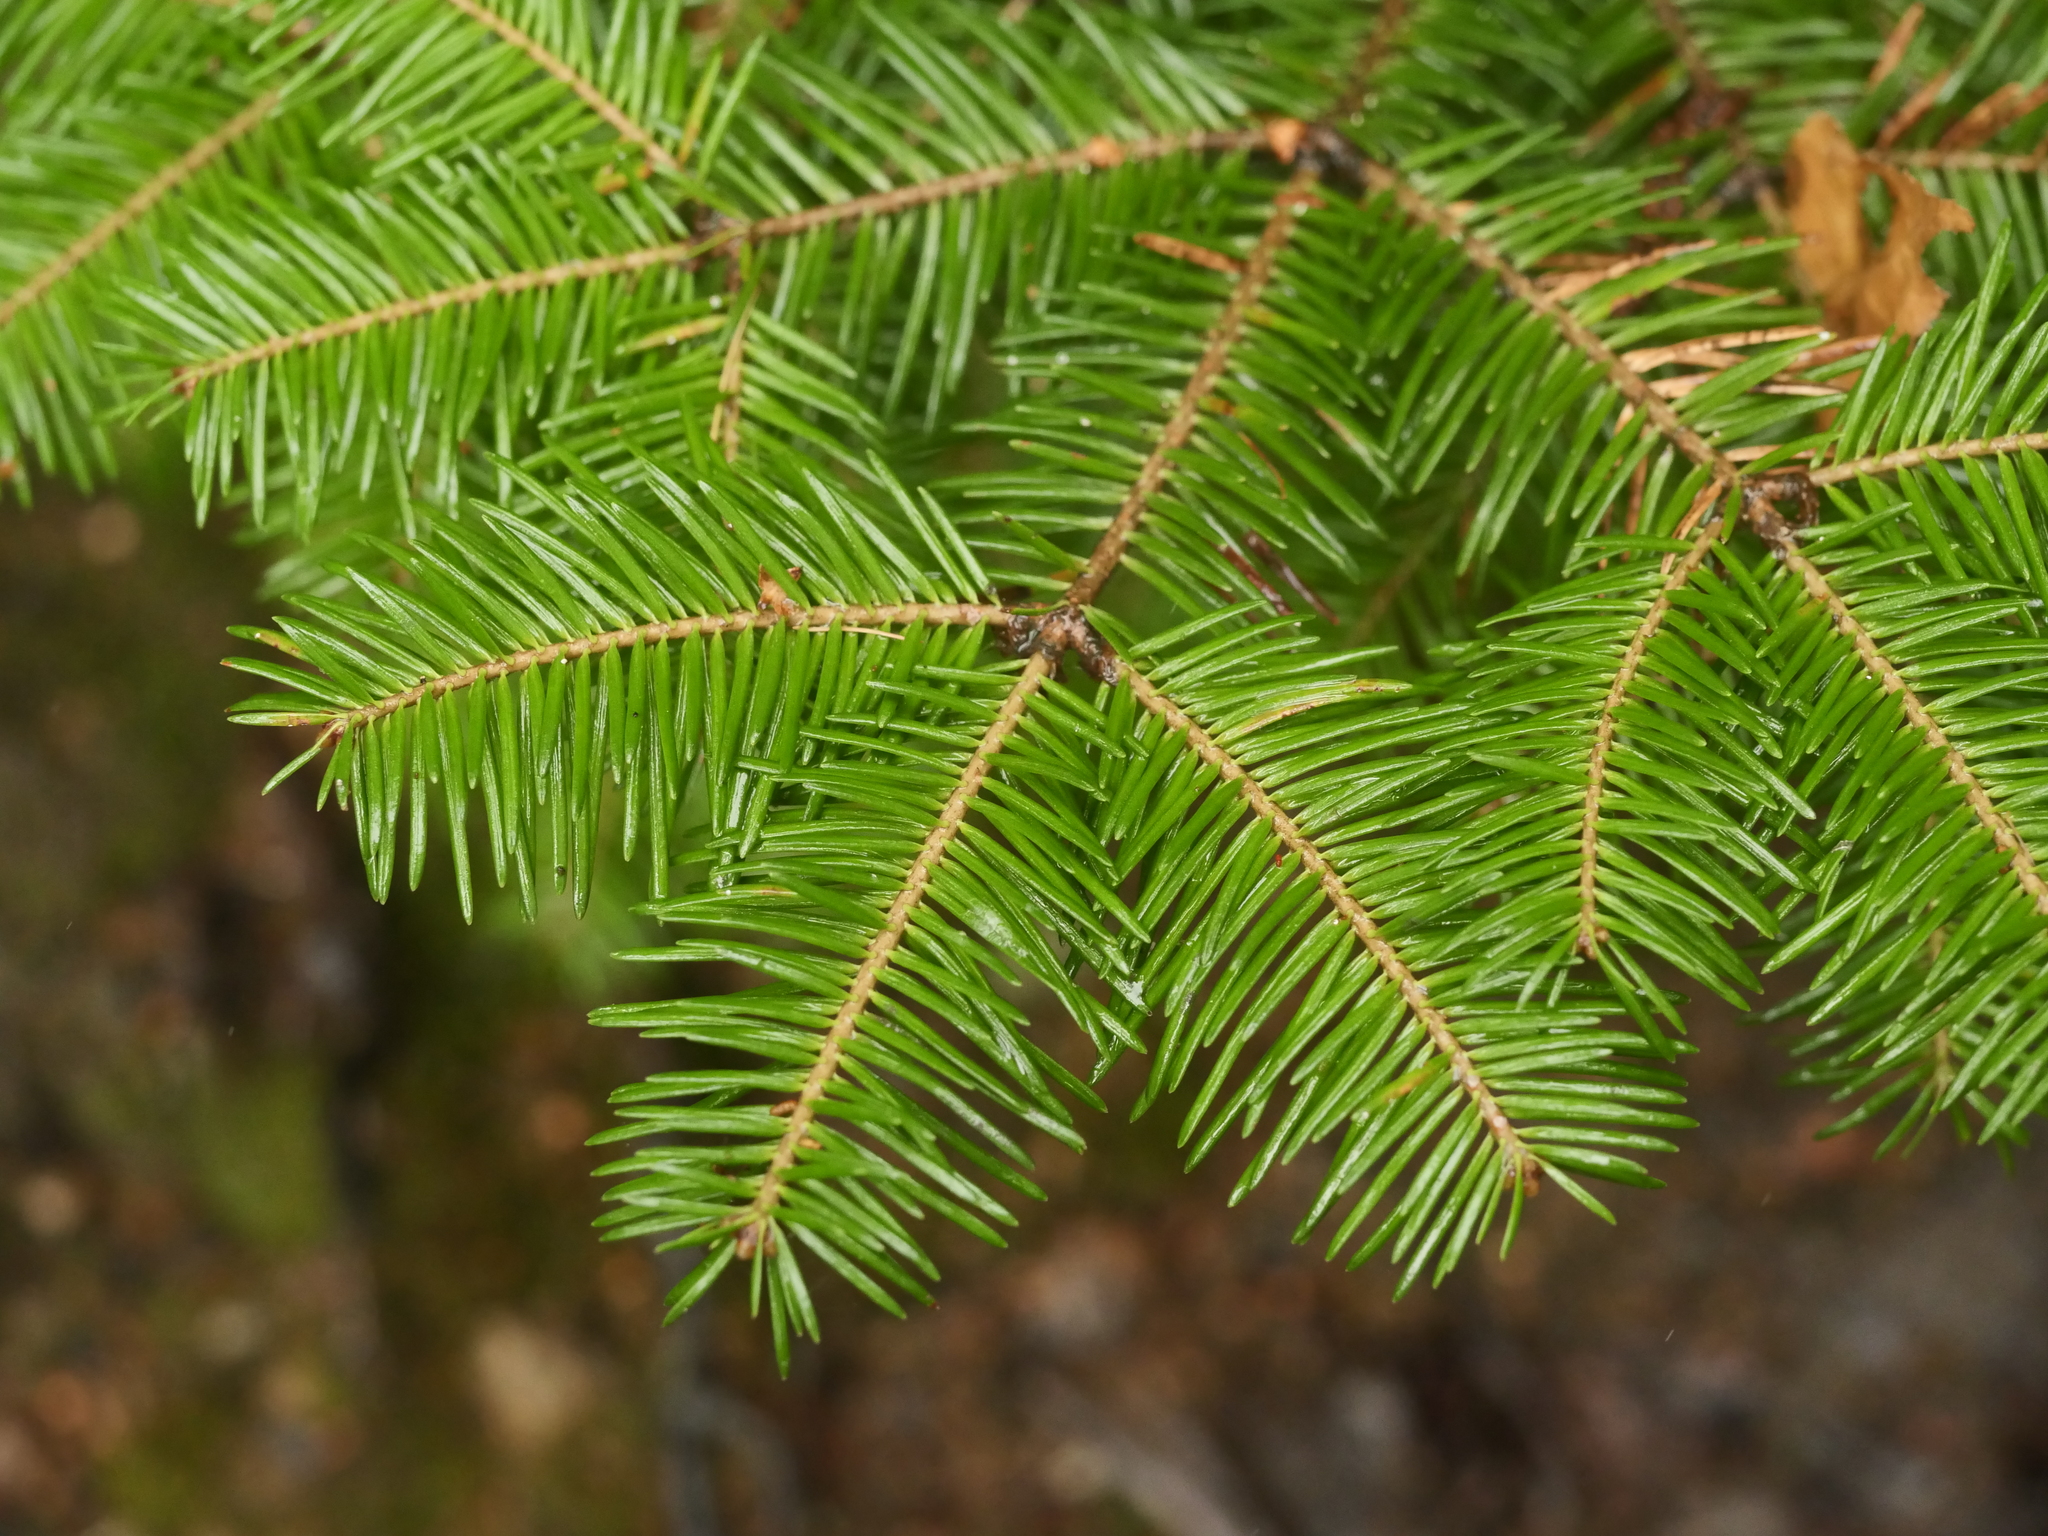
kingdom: Plantae
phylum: Tracheophyta
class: Pinopsida
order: Pinales
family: Pinaceae
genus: Abies
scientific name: Abies balsamea
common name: Balsam fir
